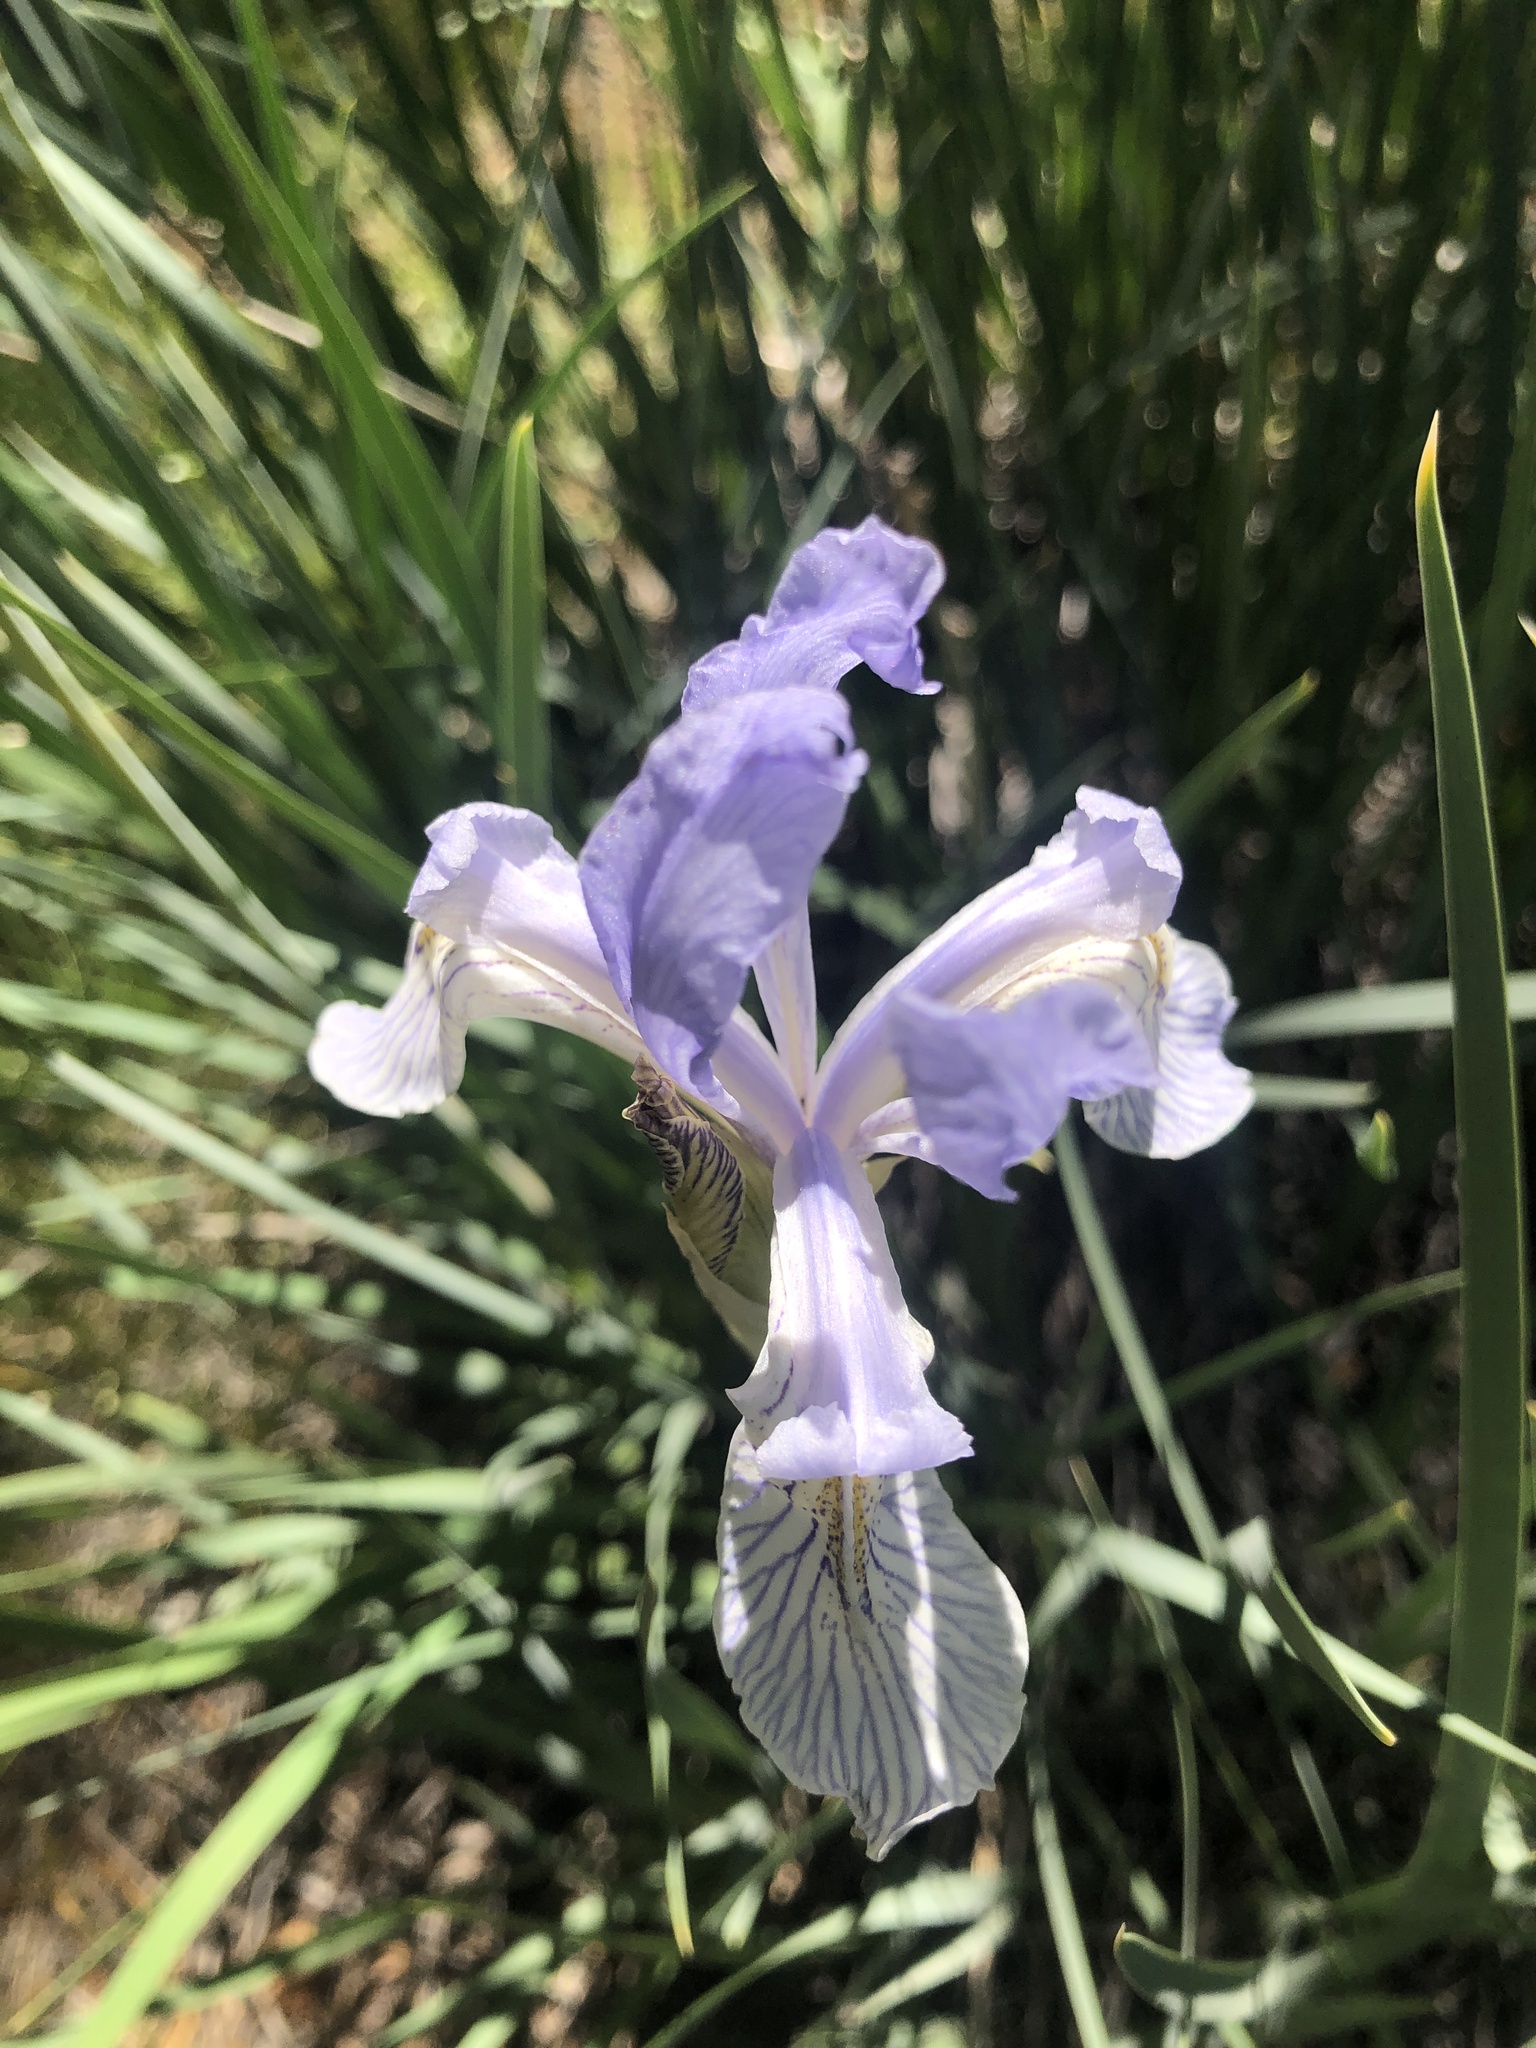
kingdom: Plantae
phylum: Tracheophyta
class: Liliopsida
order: Asparagales
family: Iridaceae
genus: Iris
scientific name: Iris missouriensis
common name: Rocky mountain iris
